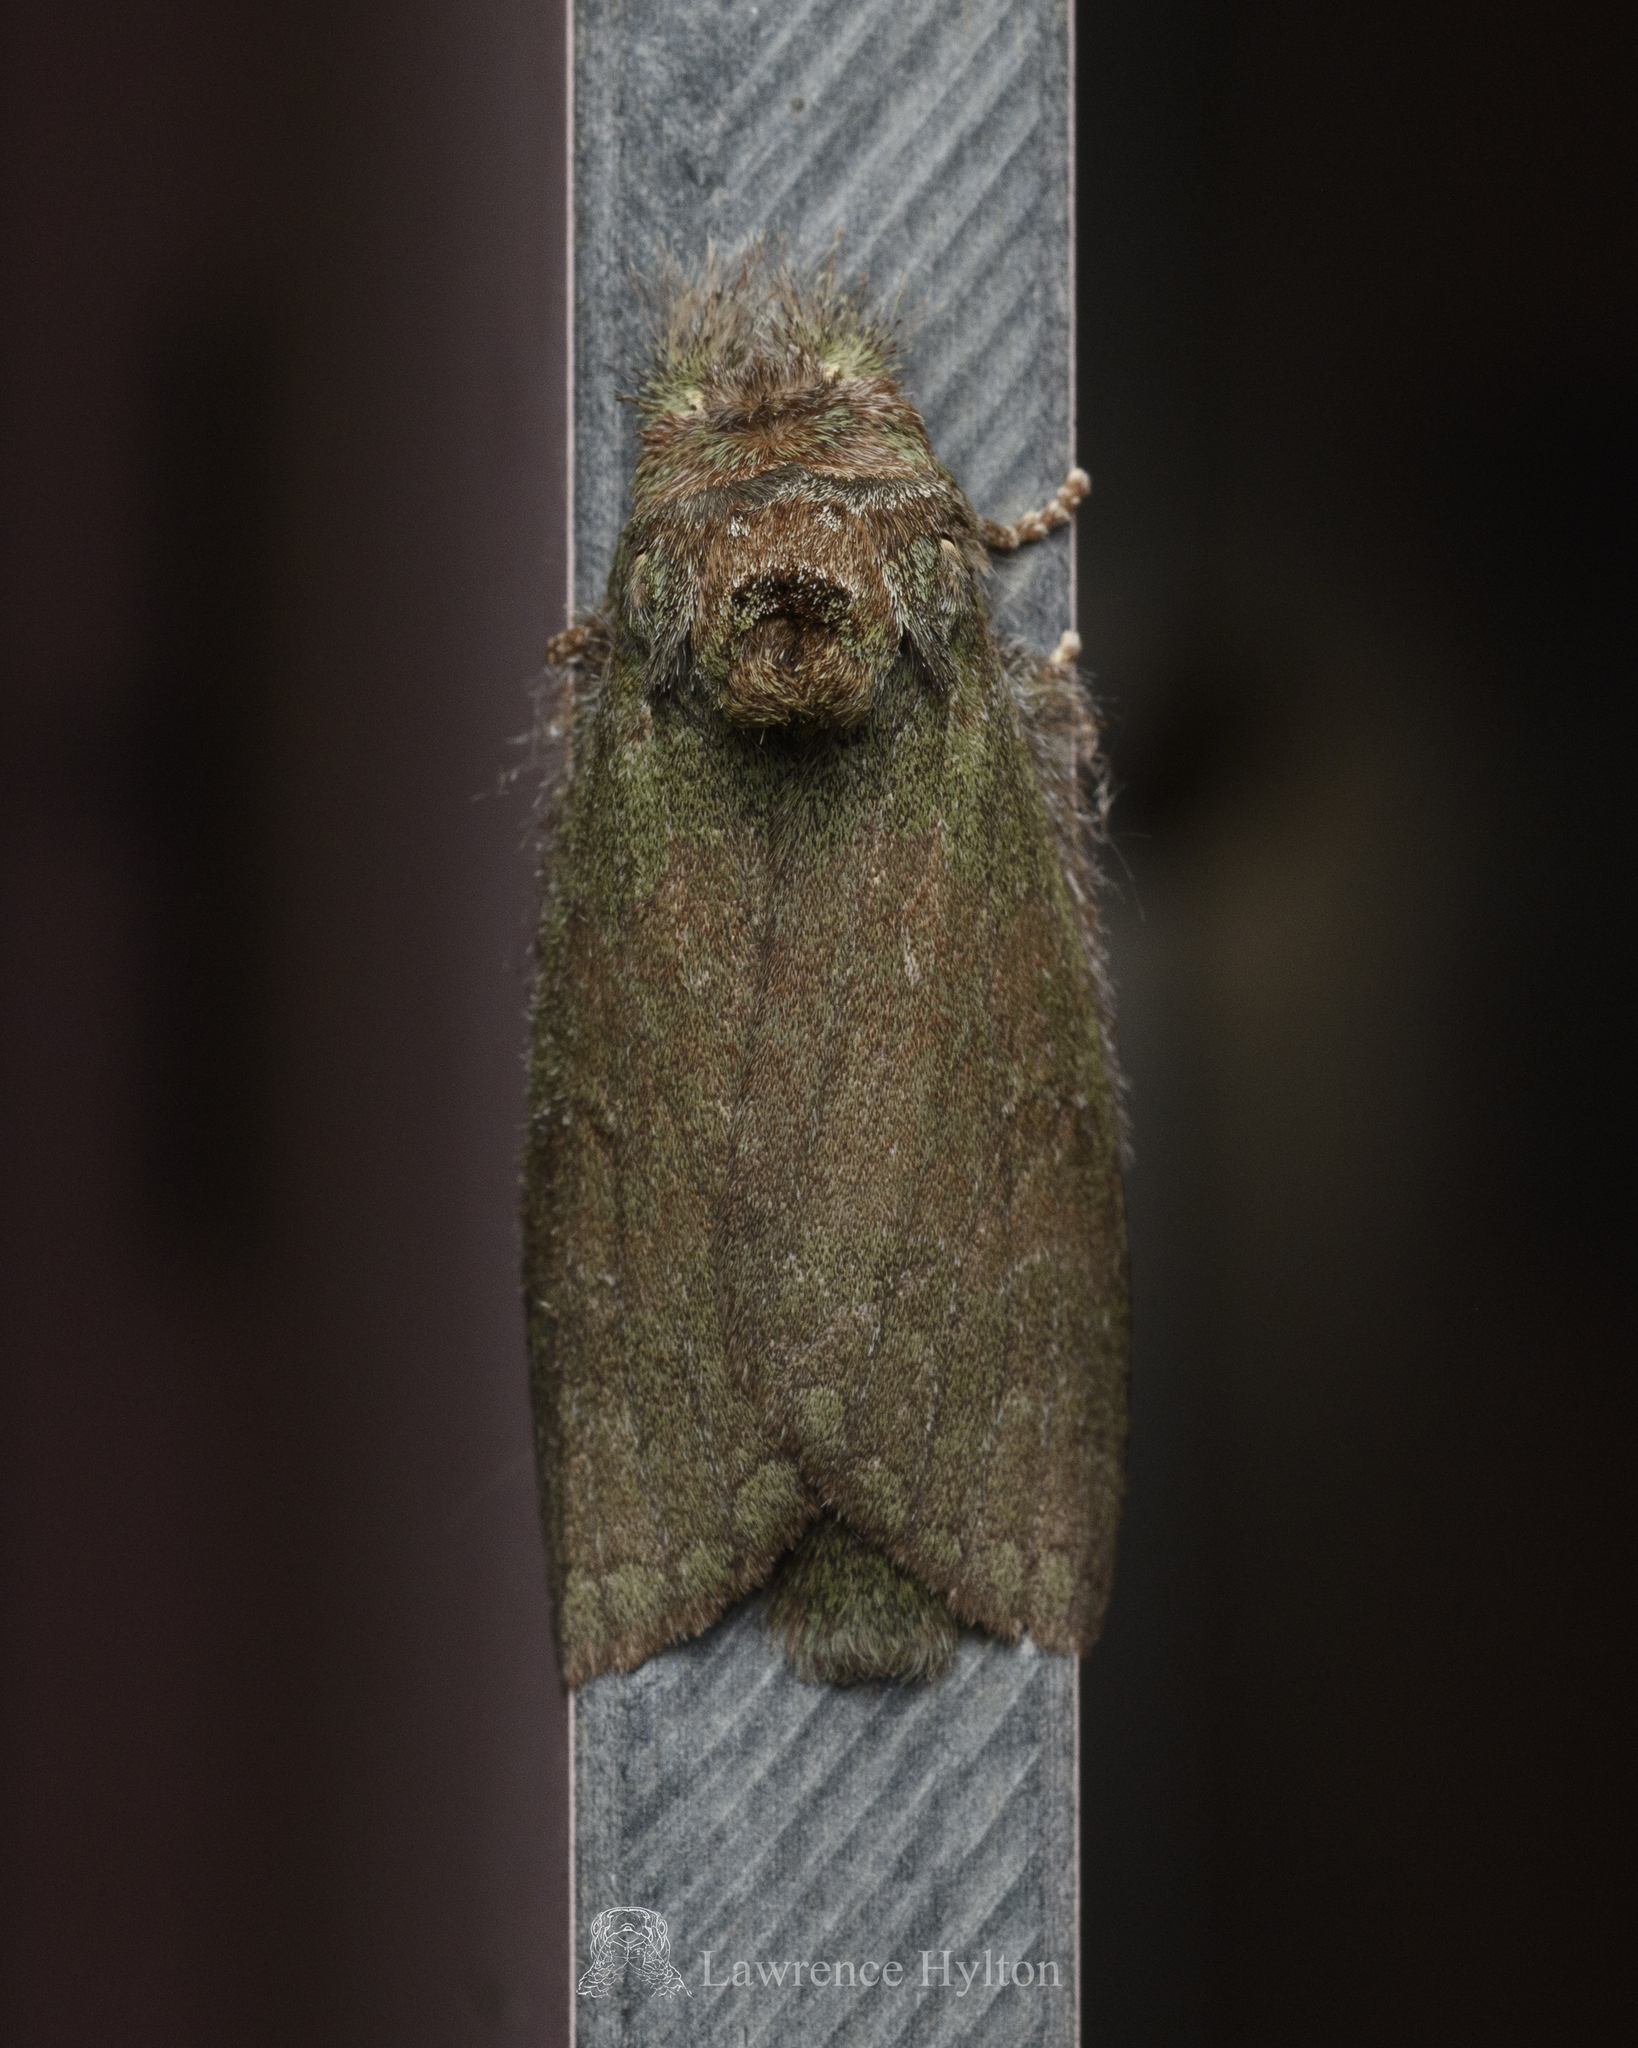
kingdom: Animalia
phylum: Arthropoda
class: Insecta
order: Lepidoptera
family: Notodontidae
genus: Netria
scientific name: Netria viridescens
